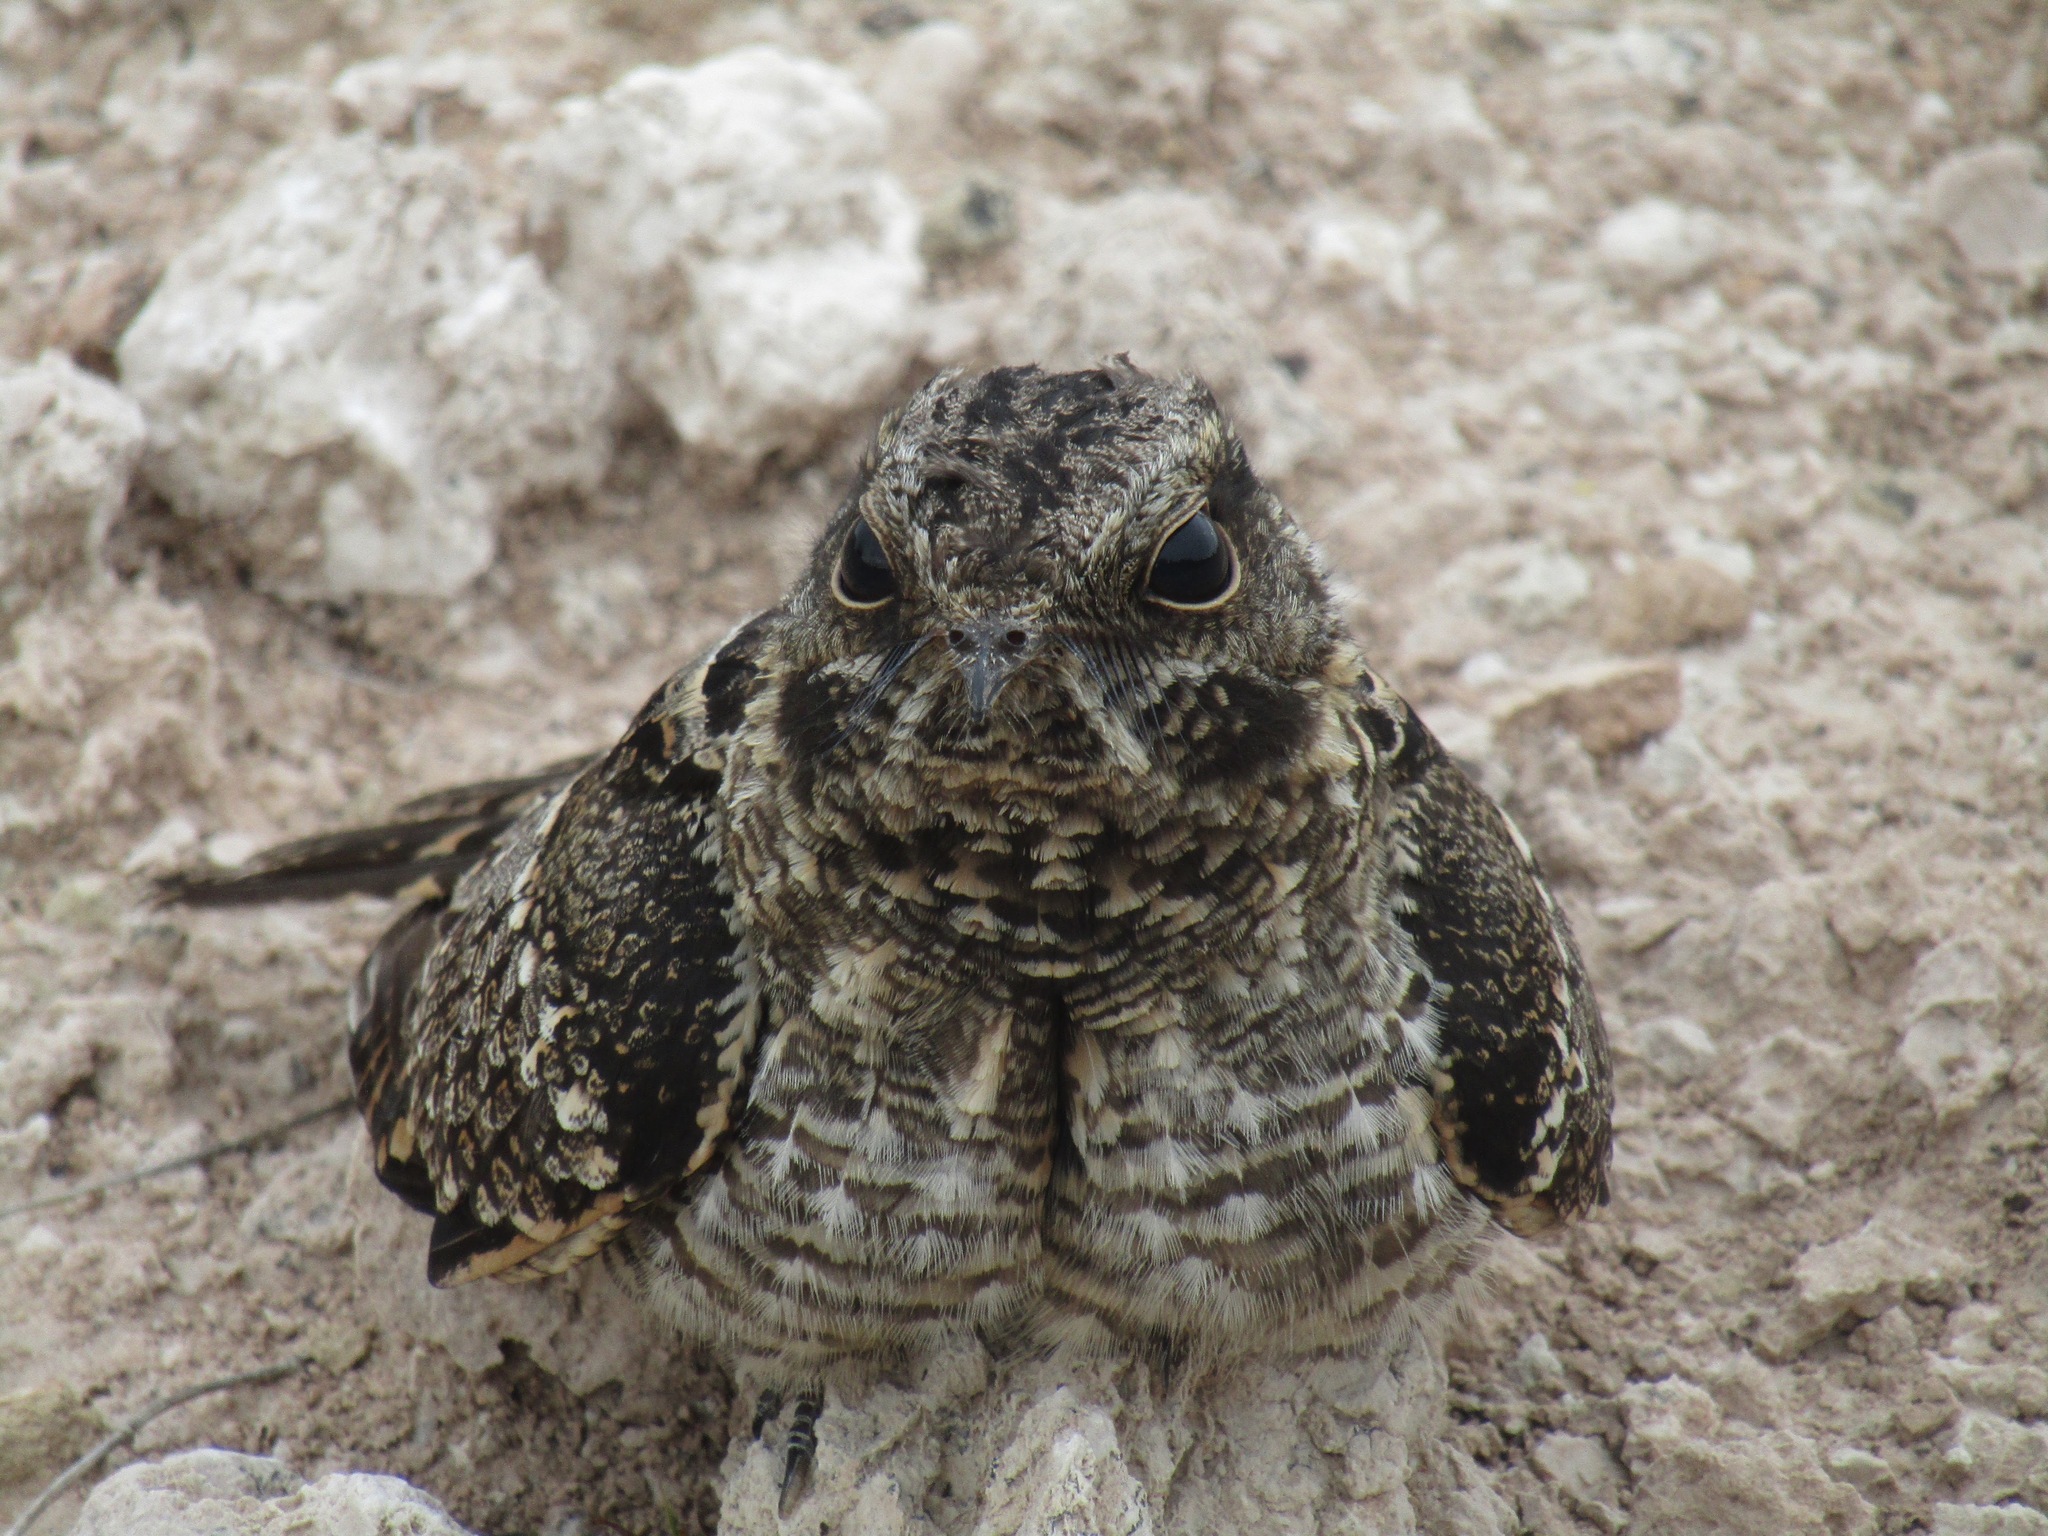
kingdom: Animalia
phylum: Chordata
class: Aves
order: Caprimulgiformes
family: Caprimulgidae
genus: Hydropsalis
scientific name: Hydropsalis torquata
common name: Scissor-tailed nightjar
